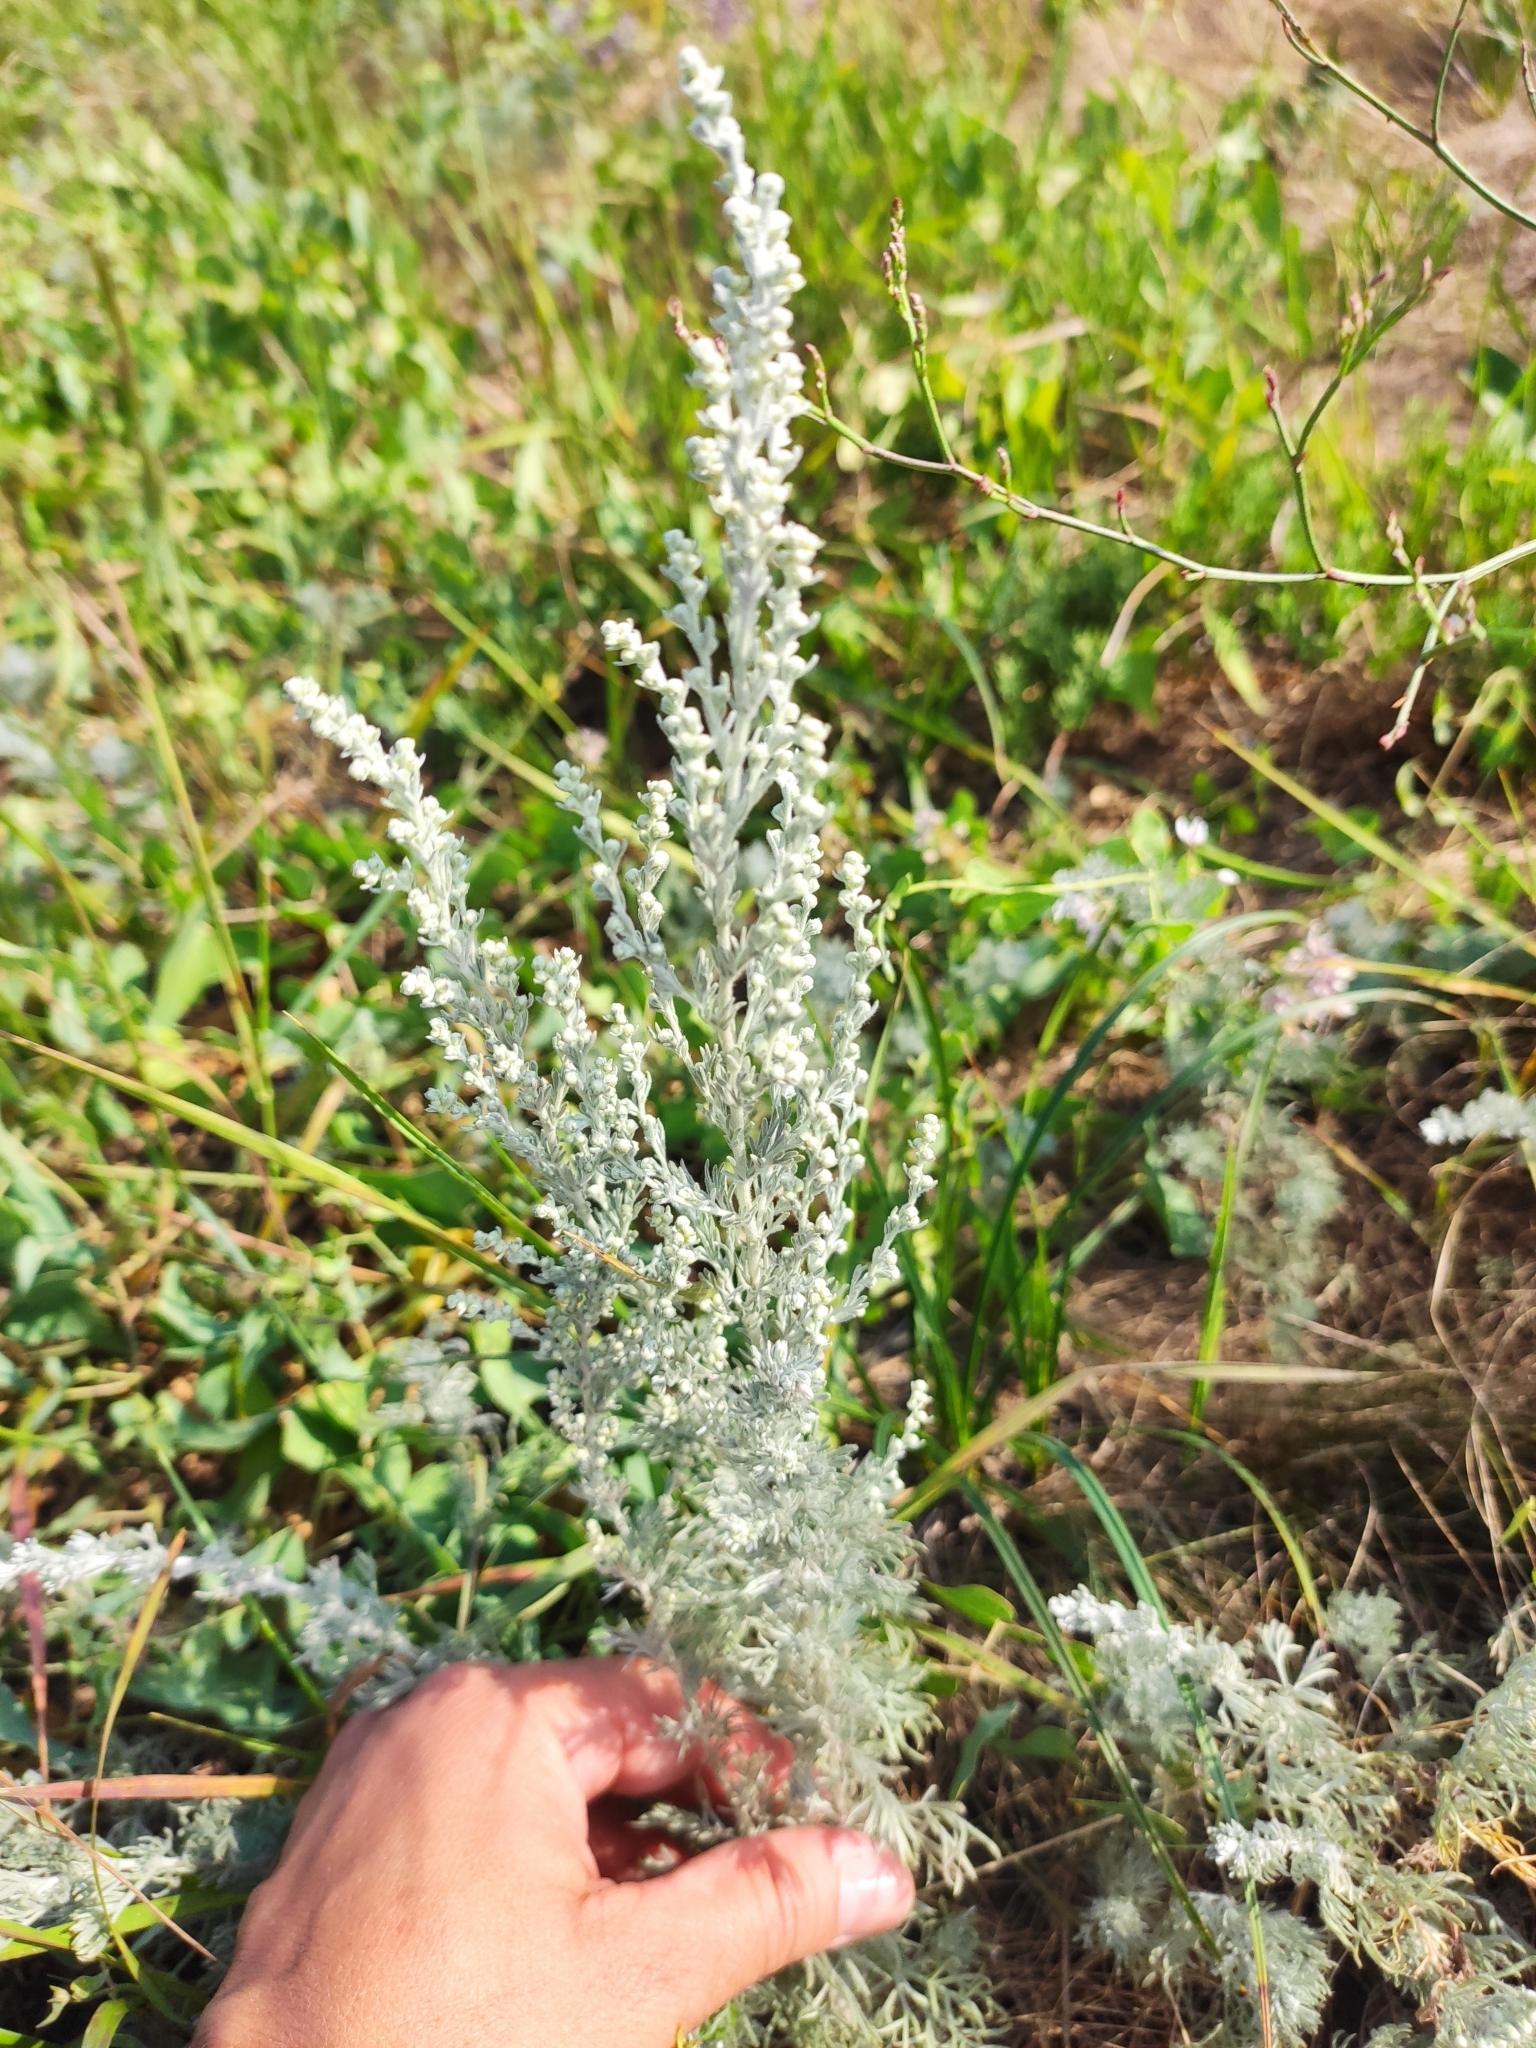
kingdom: Plantae
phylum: Tracheophyta
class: Magnoliopsida
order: Asterales
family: Asteraceae
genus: Artemisia
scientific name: Artemisia austriaca
